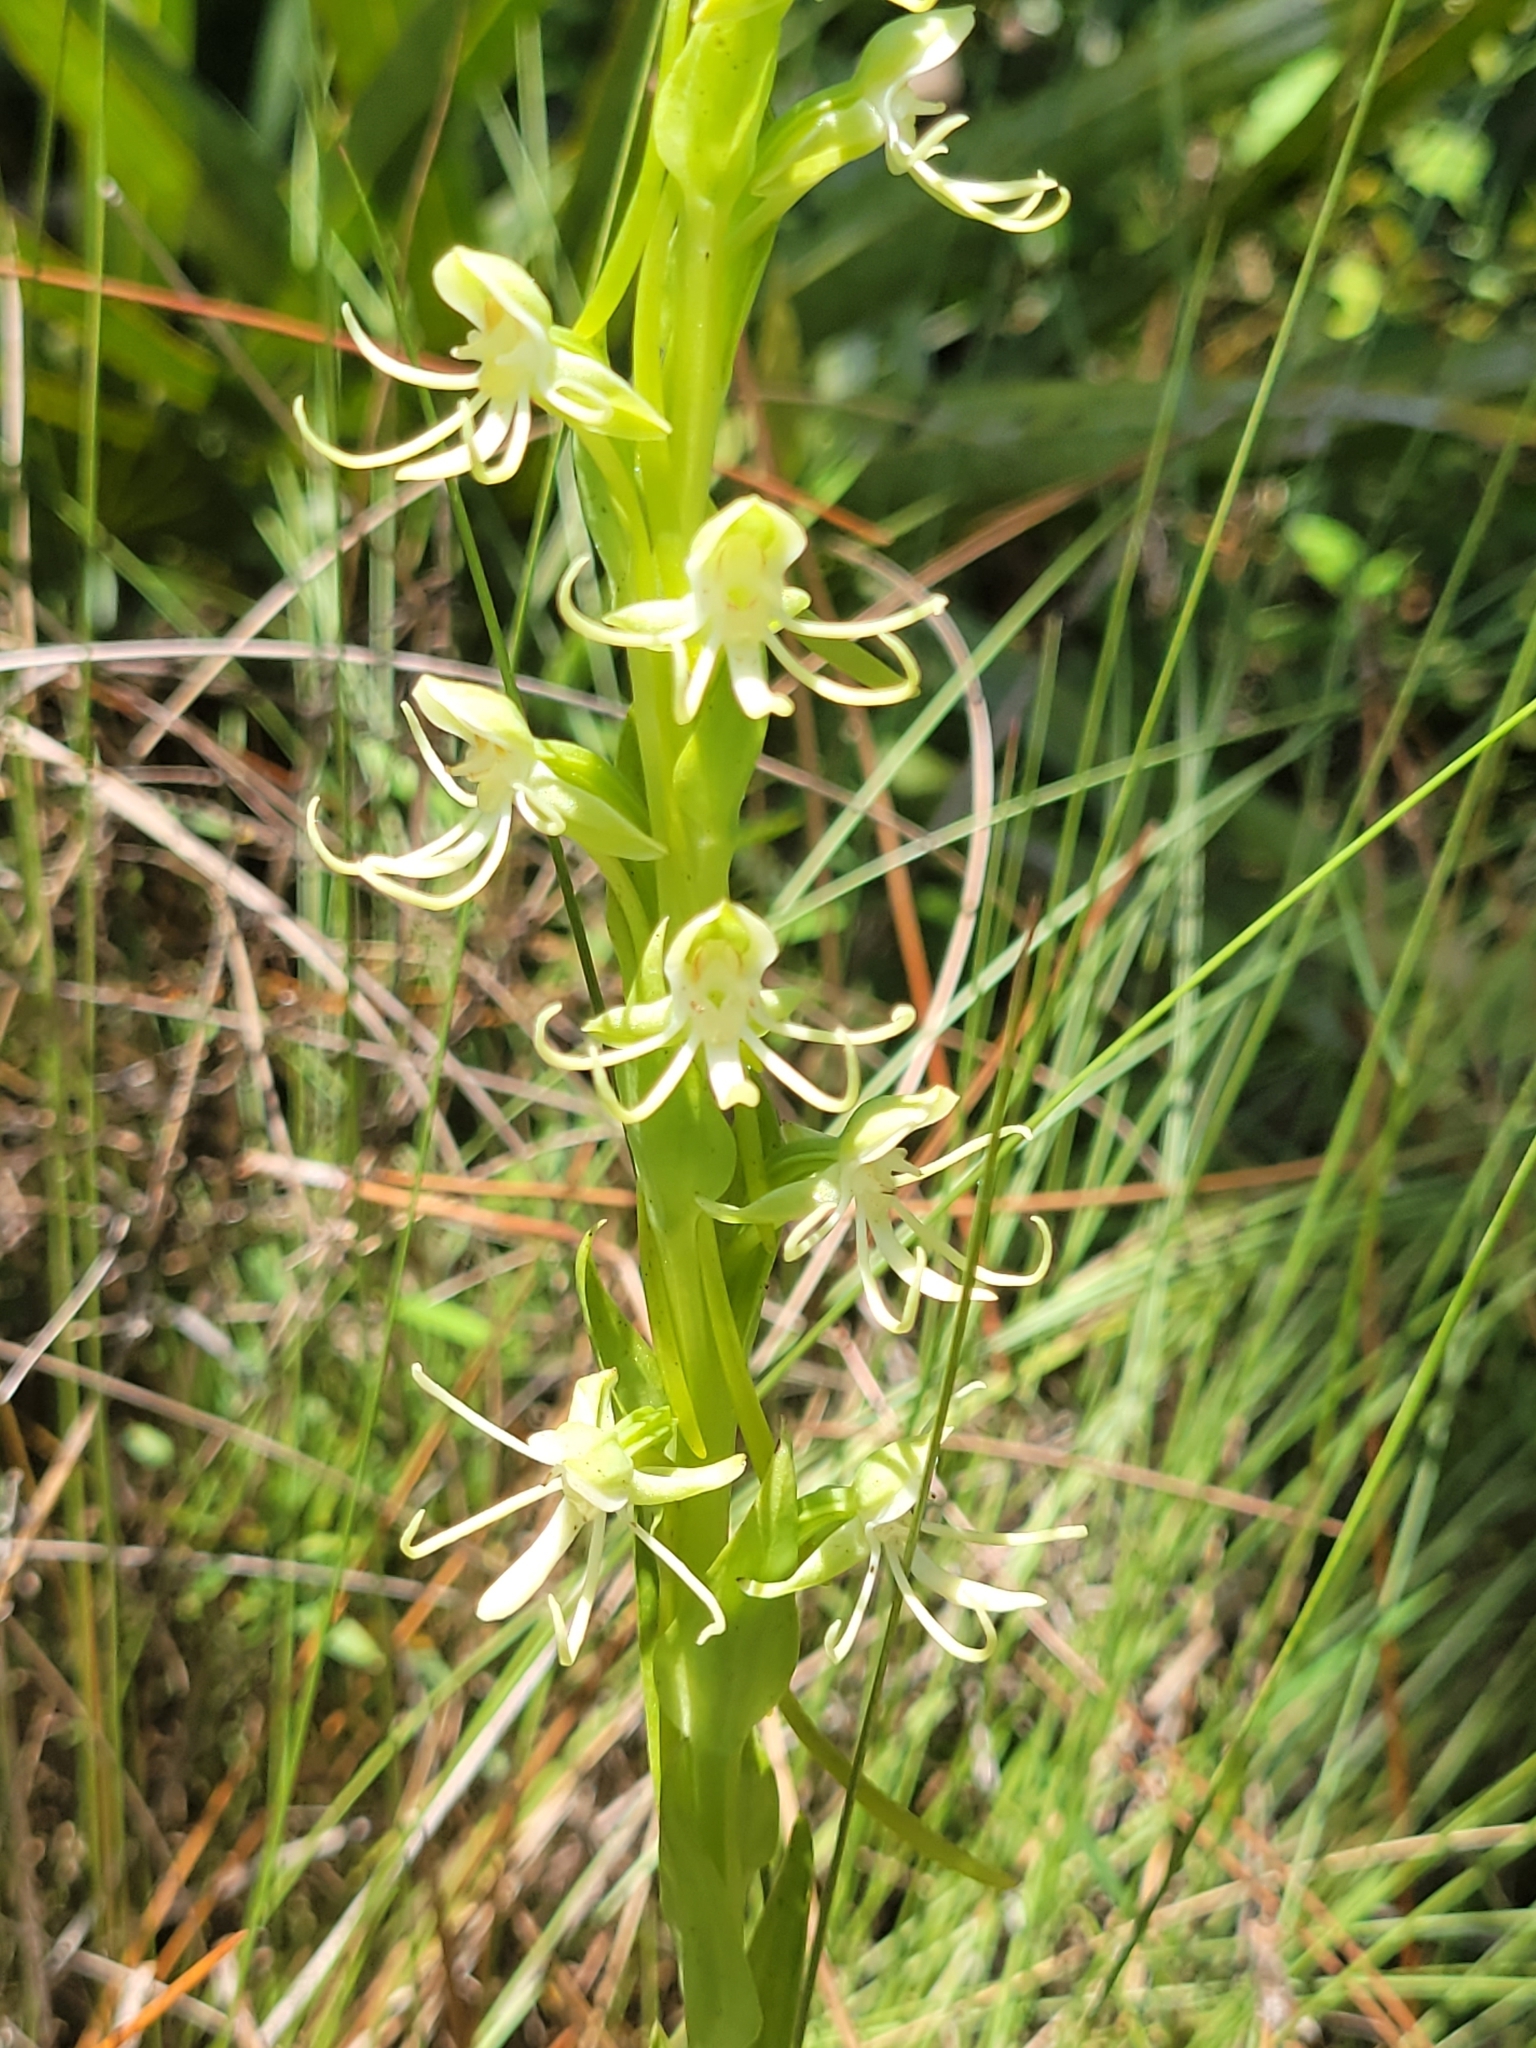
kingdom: Plantae
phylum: Tracheophyta
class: Liliopsida
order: Asparagales
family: Orchidaceae
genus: Habenaria
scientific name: Habenaria quinqueseta
